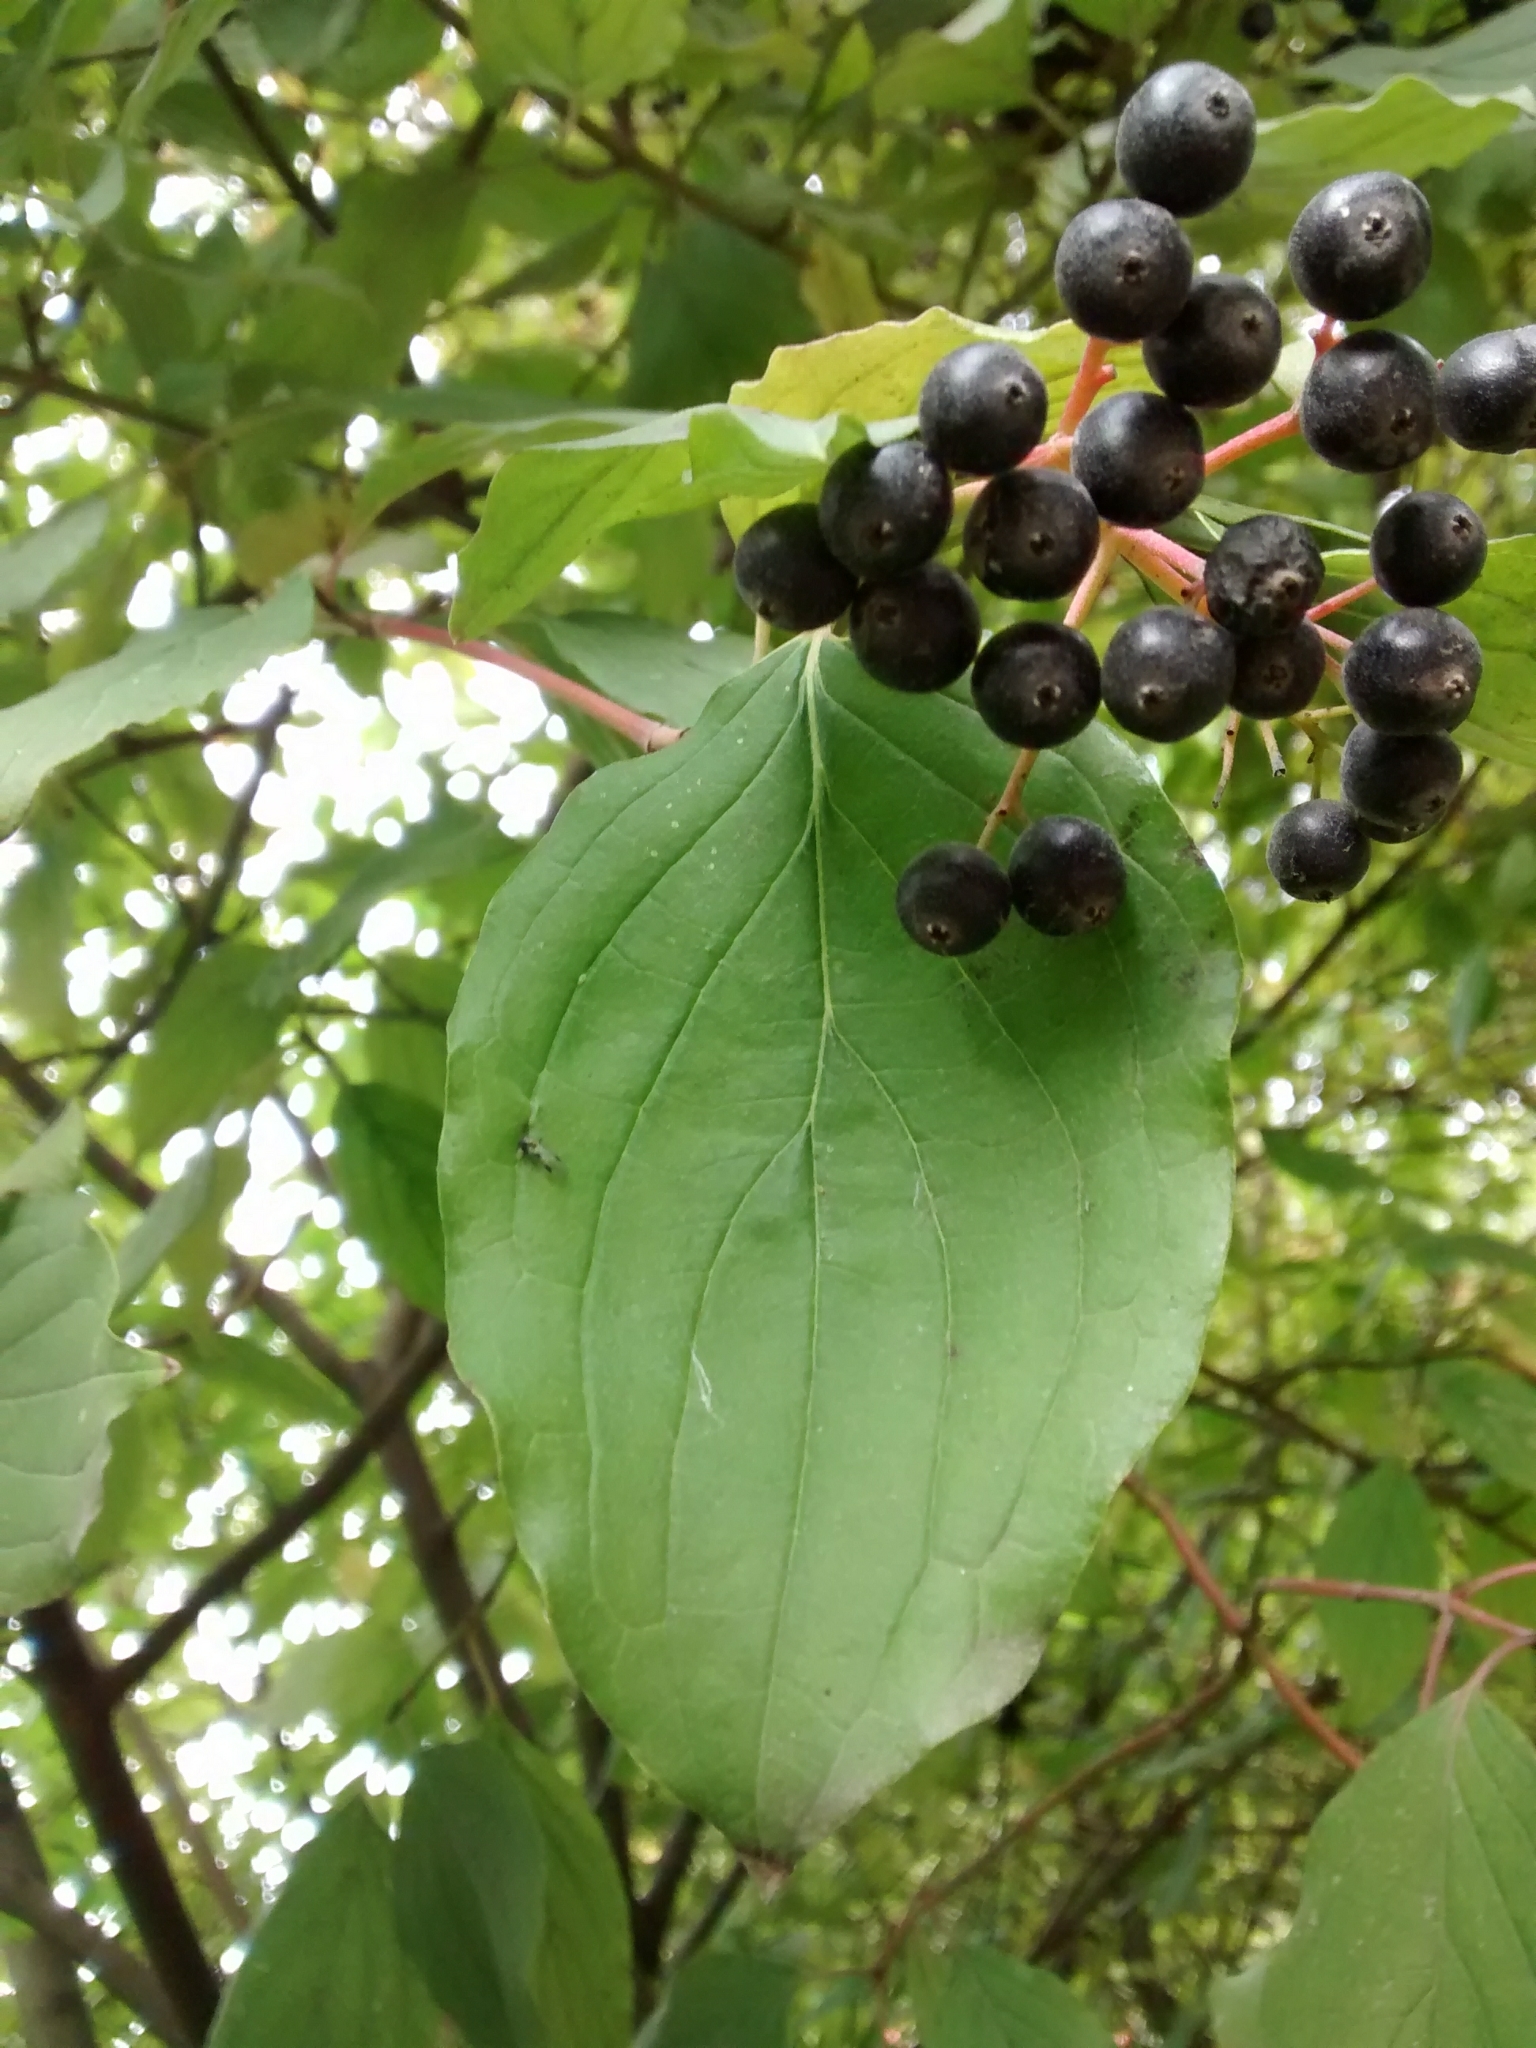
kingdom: Plantae
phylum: Tracheophyta
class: Magnoliopsida
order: Cornales
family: Cornaceae
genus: Cornus
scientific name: Cornus sanguinea
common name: Dogwood
